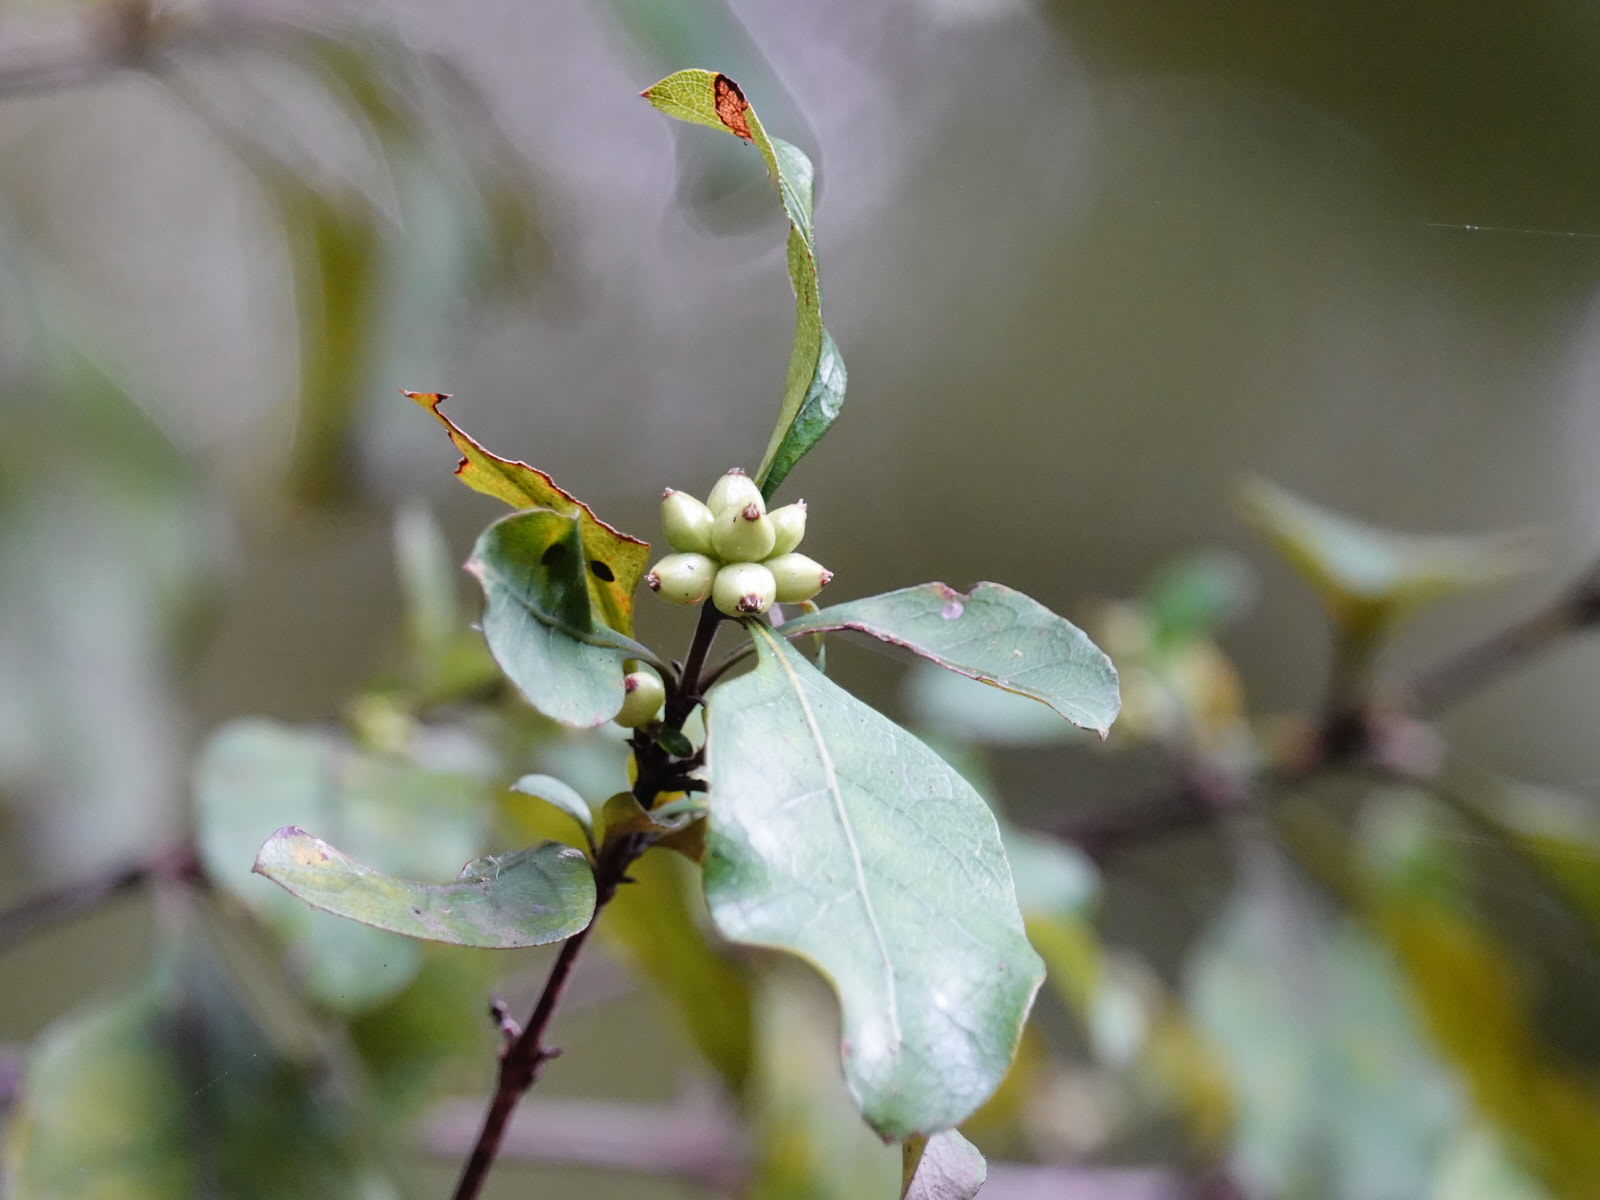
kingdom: Plantae
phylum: Tracheophyta
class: Magnoliopsida
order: Gentianales
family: Rubiaceae
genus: Coprosma
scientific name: Coprosma arborea
